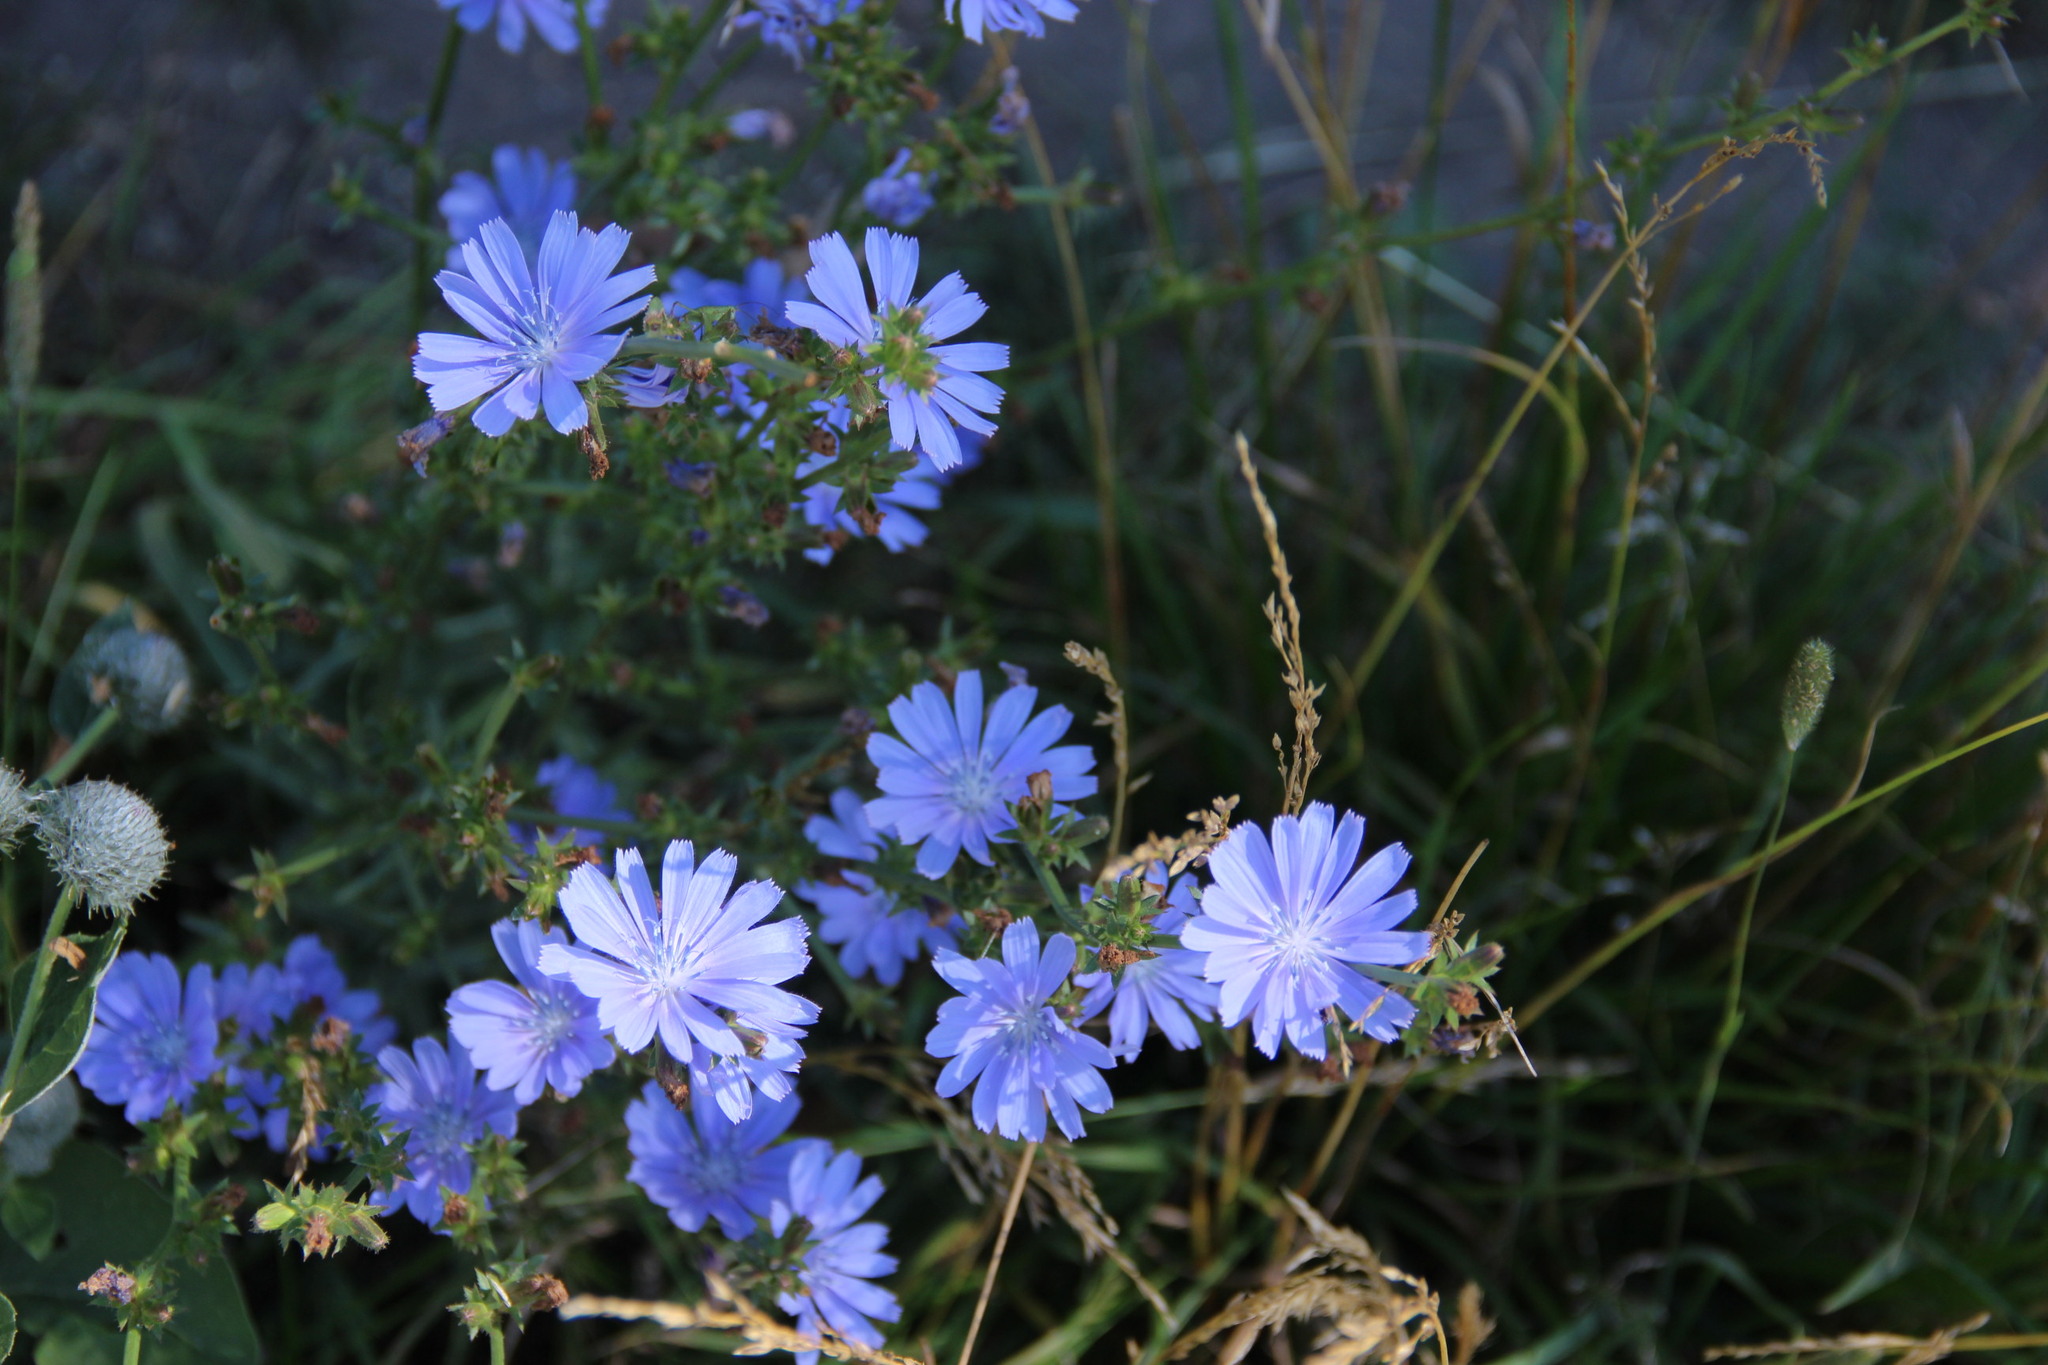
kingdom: Plantae
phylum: Tracheophyta
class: Magnoliopsida
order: Asterales
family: Asteraceae
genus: Cichorium
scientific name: Cichorium intybus
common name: Chicory
